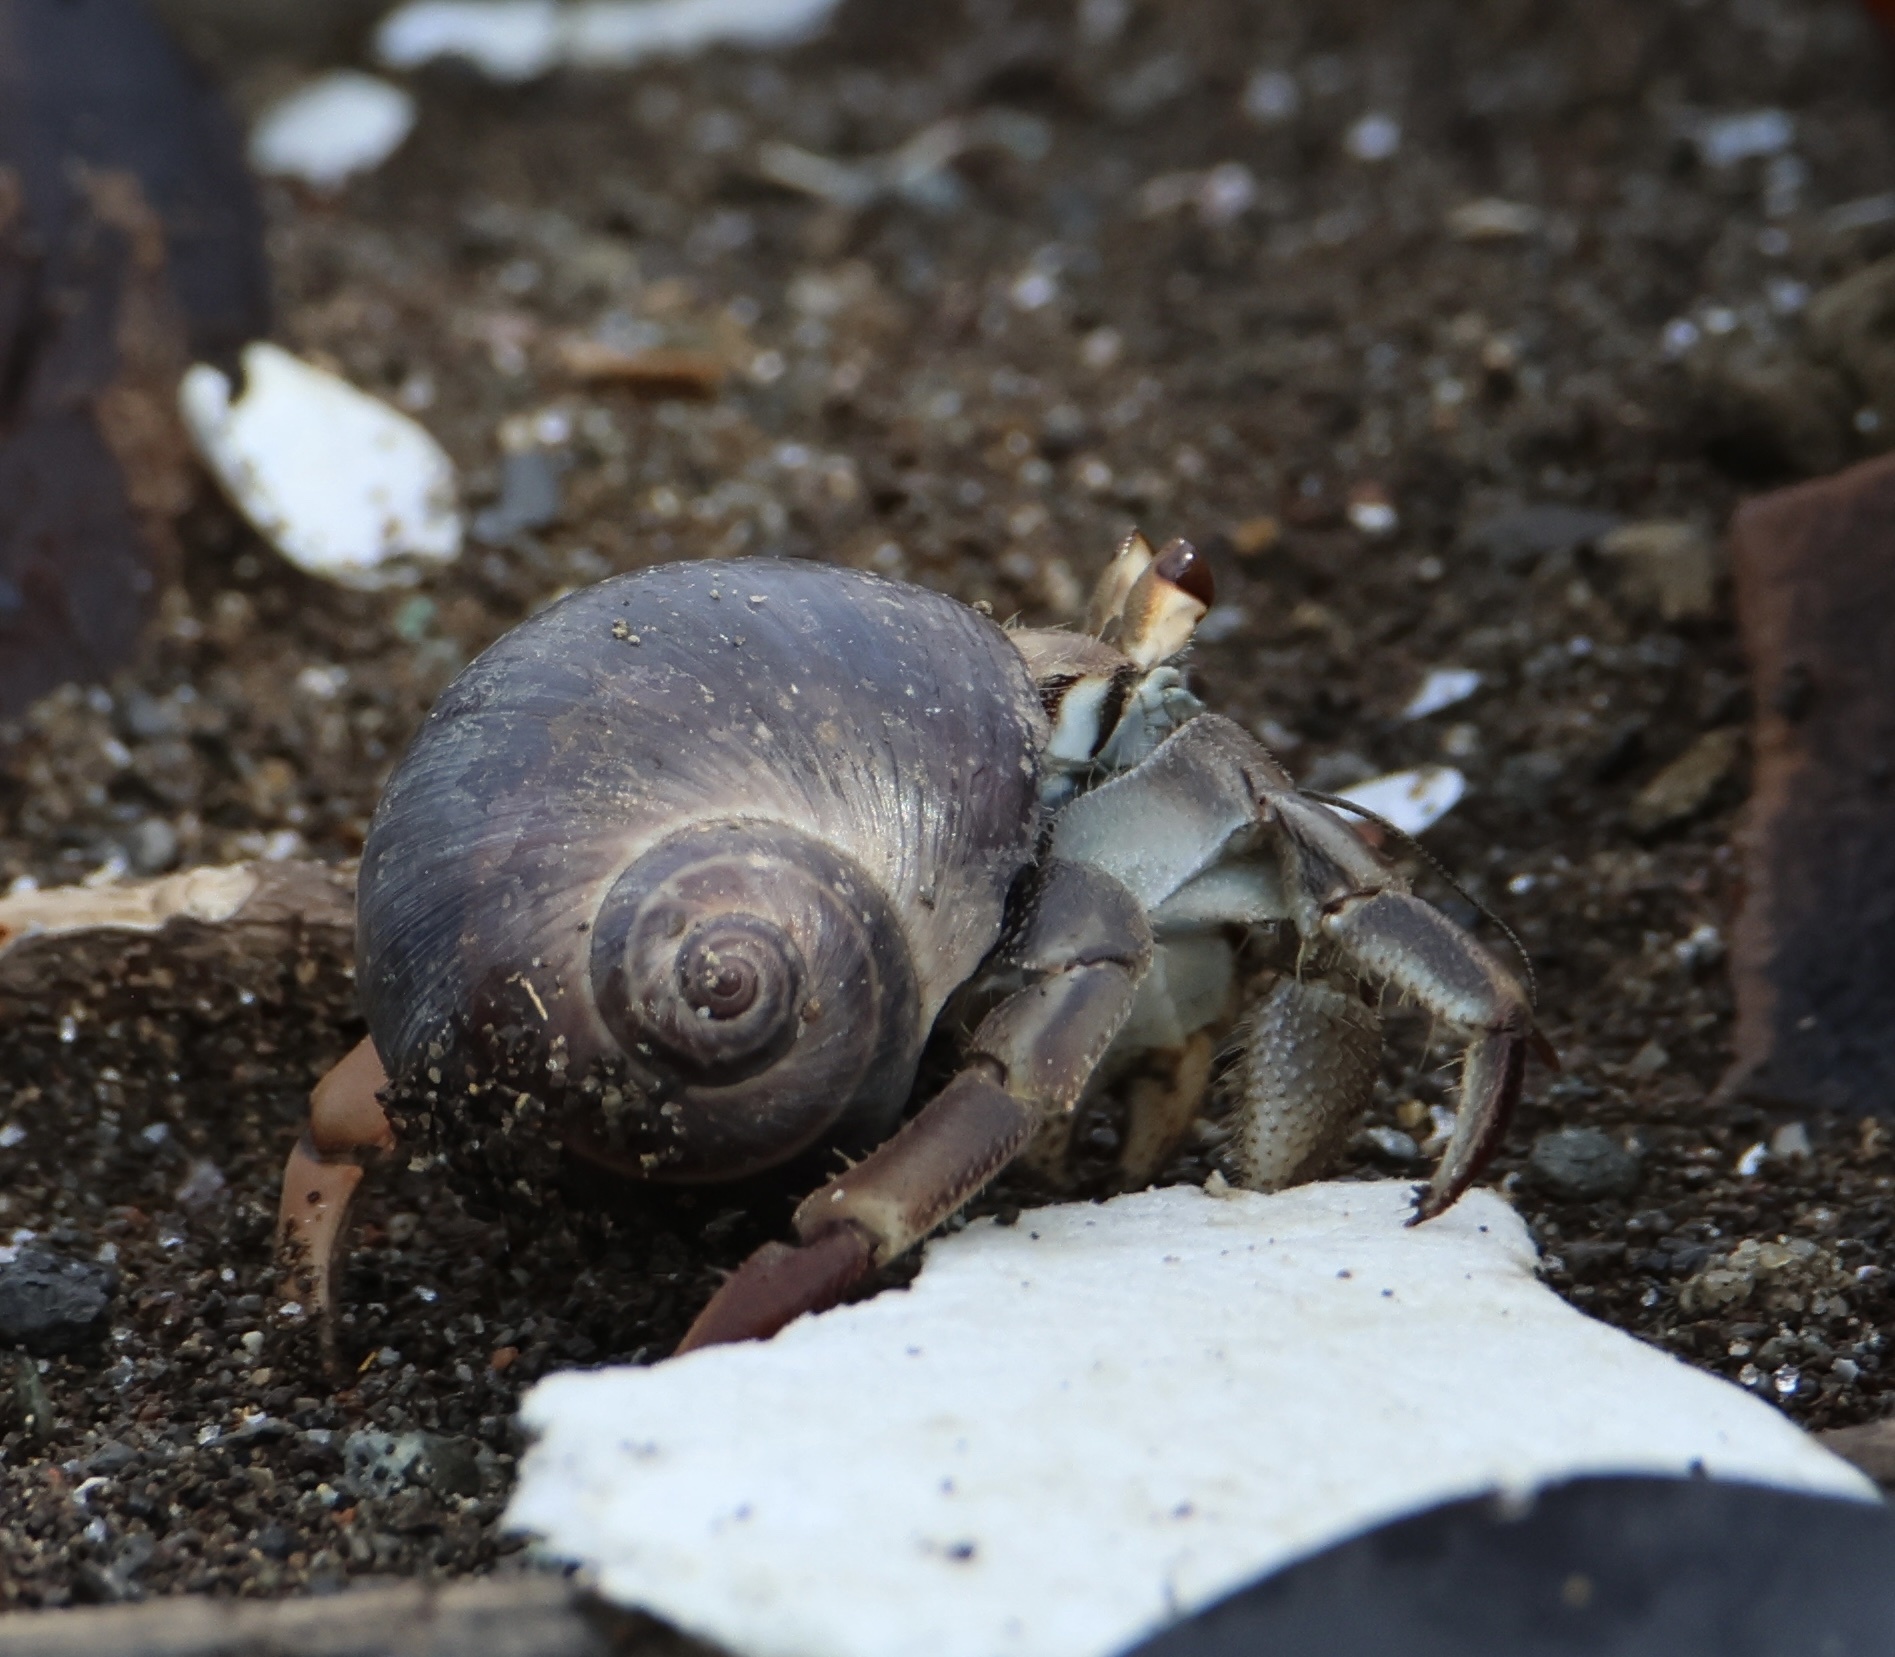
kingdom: Animalia
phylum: Arthropoda
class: Malacostraca
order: Decapoda
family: Coenobitidae
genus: Coenobita
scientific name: Coenobita compressus
